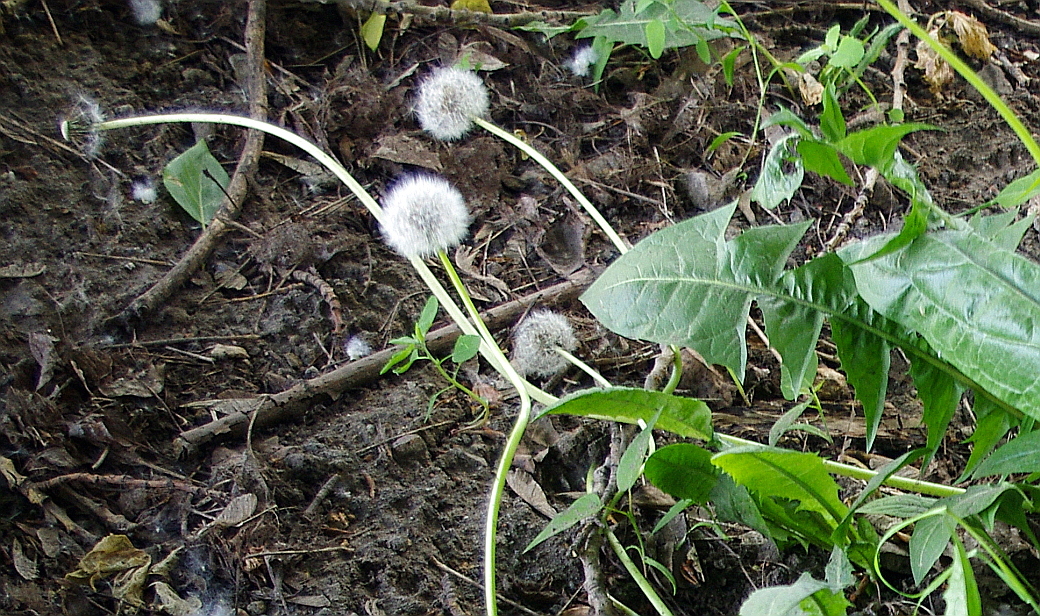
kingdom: Plantae
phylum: Tracheophyta
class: Magnoliopsida
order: Asterales
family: Asteraceae
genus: Taraxacum
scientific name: Taraxacum officinale
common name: Common dandelion
